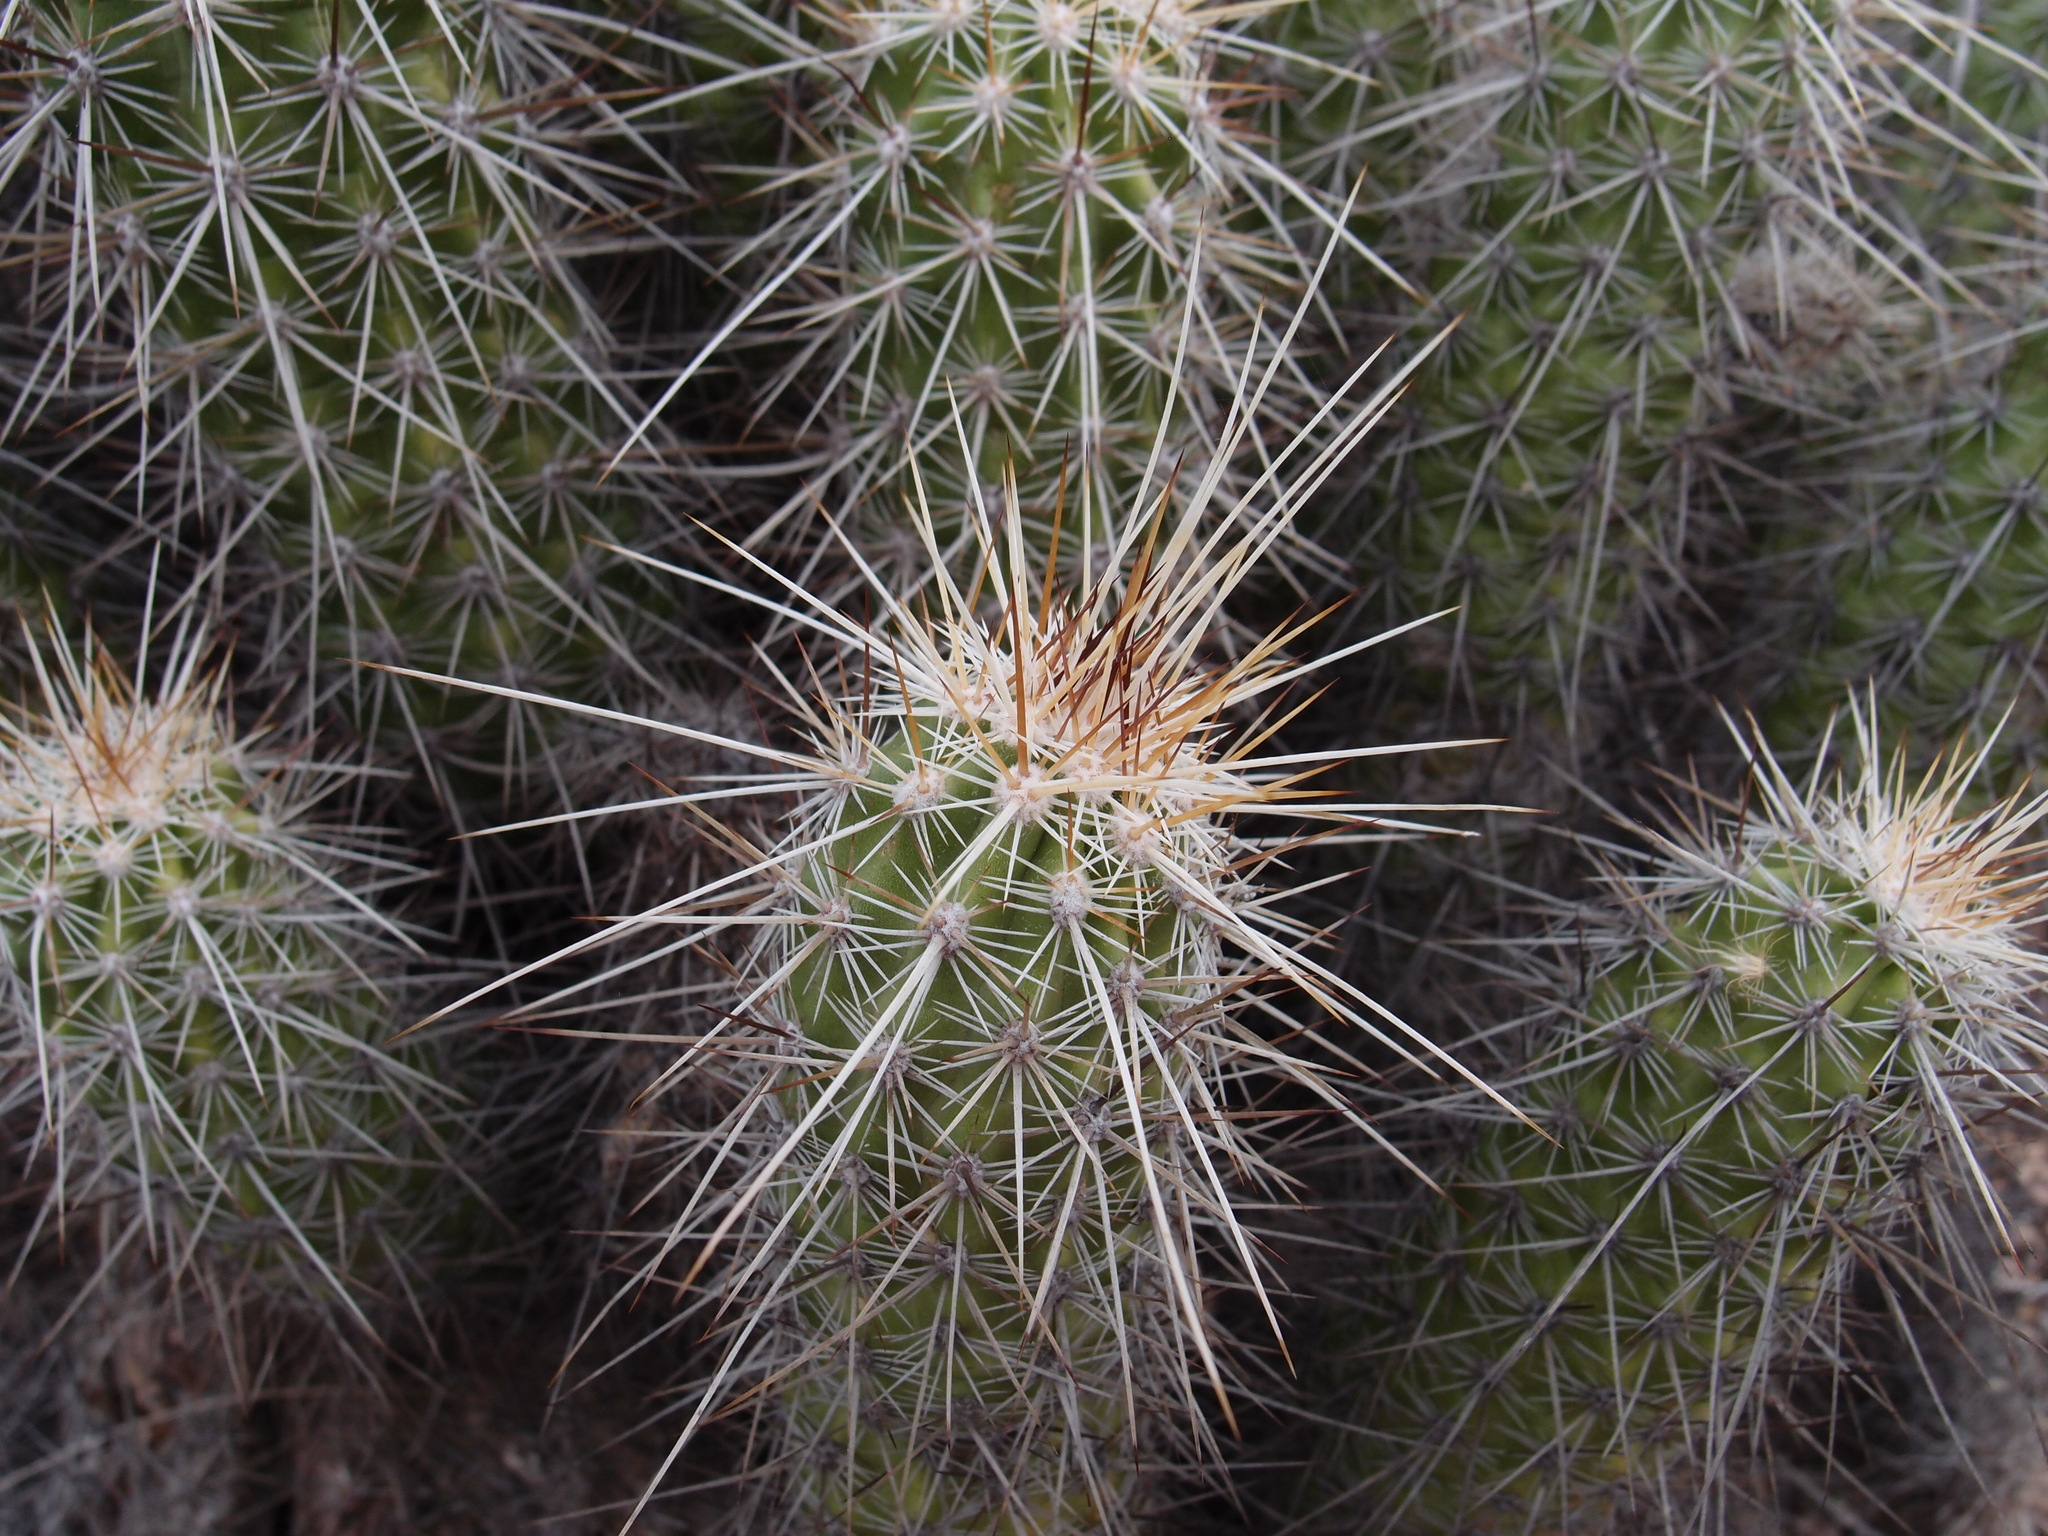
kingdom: Plantae
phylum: Tracheophyta
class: Magnoliopsida
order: Caryophyllales
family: Cactaceae
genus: Echinocereus
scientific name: Echinocereus llanurensis
